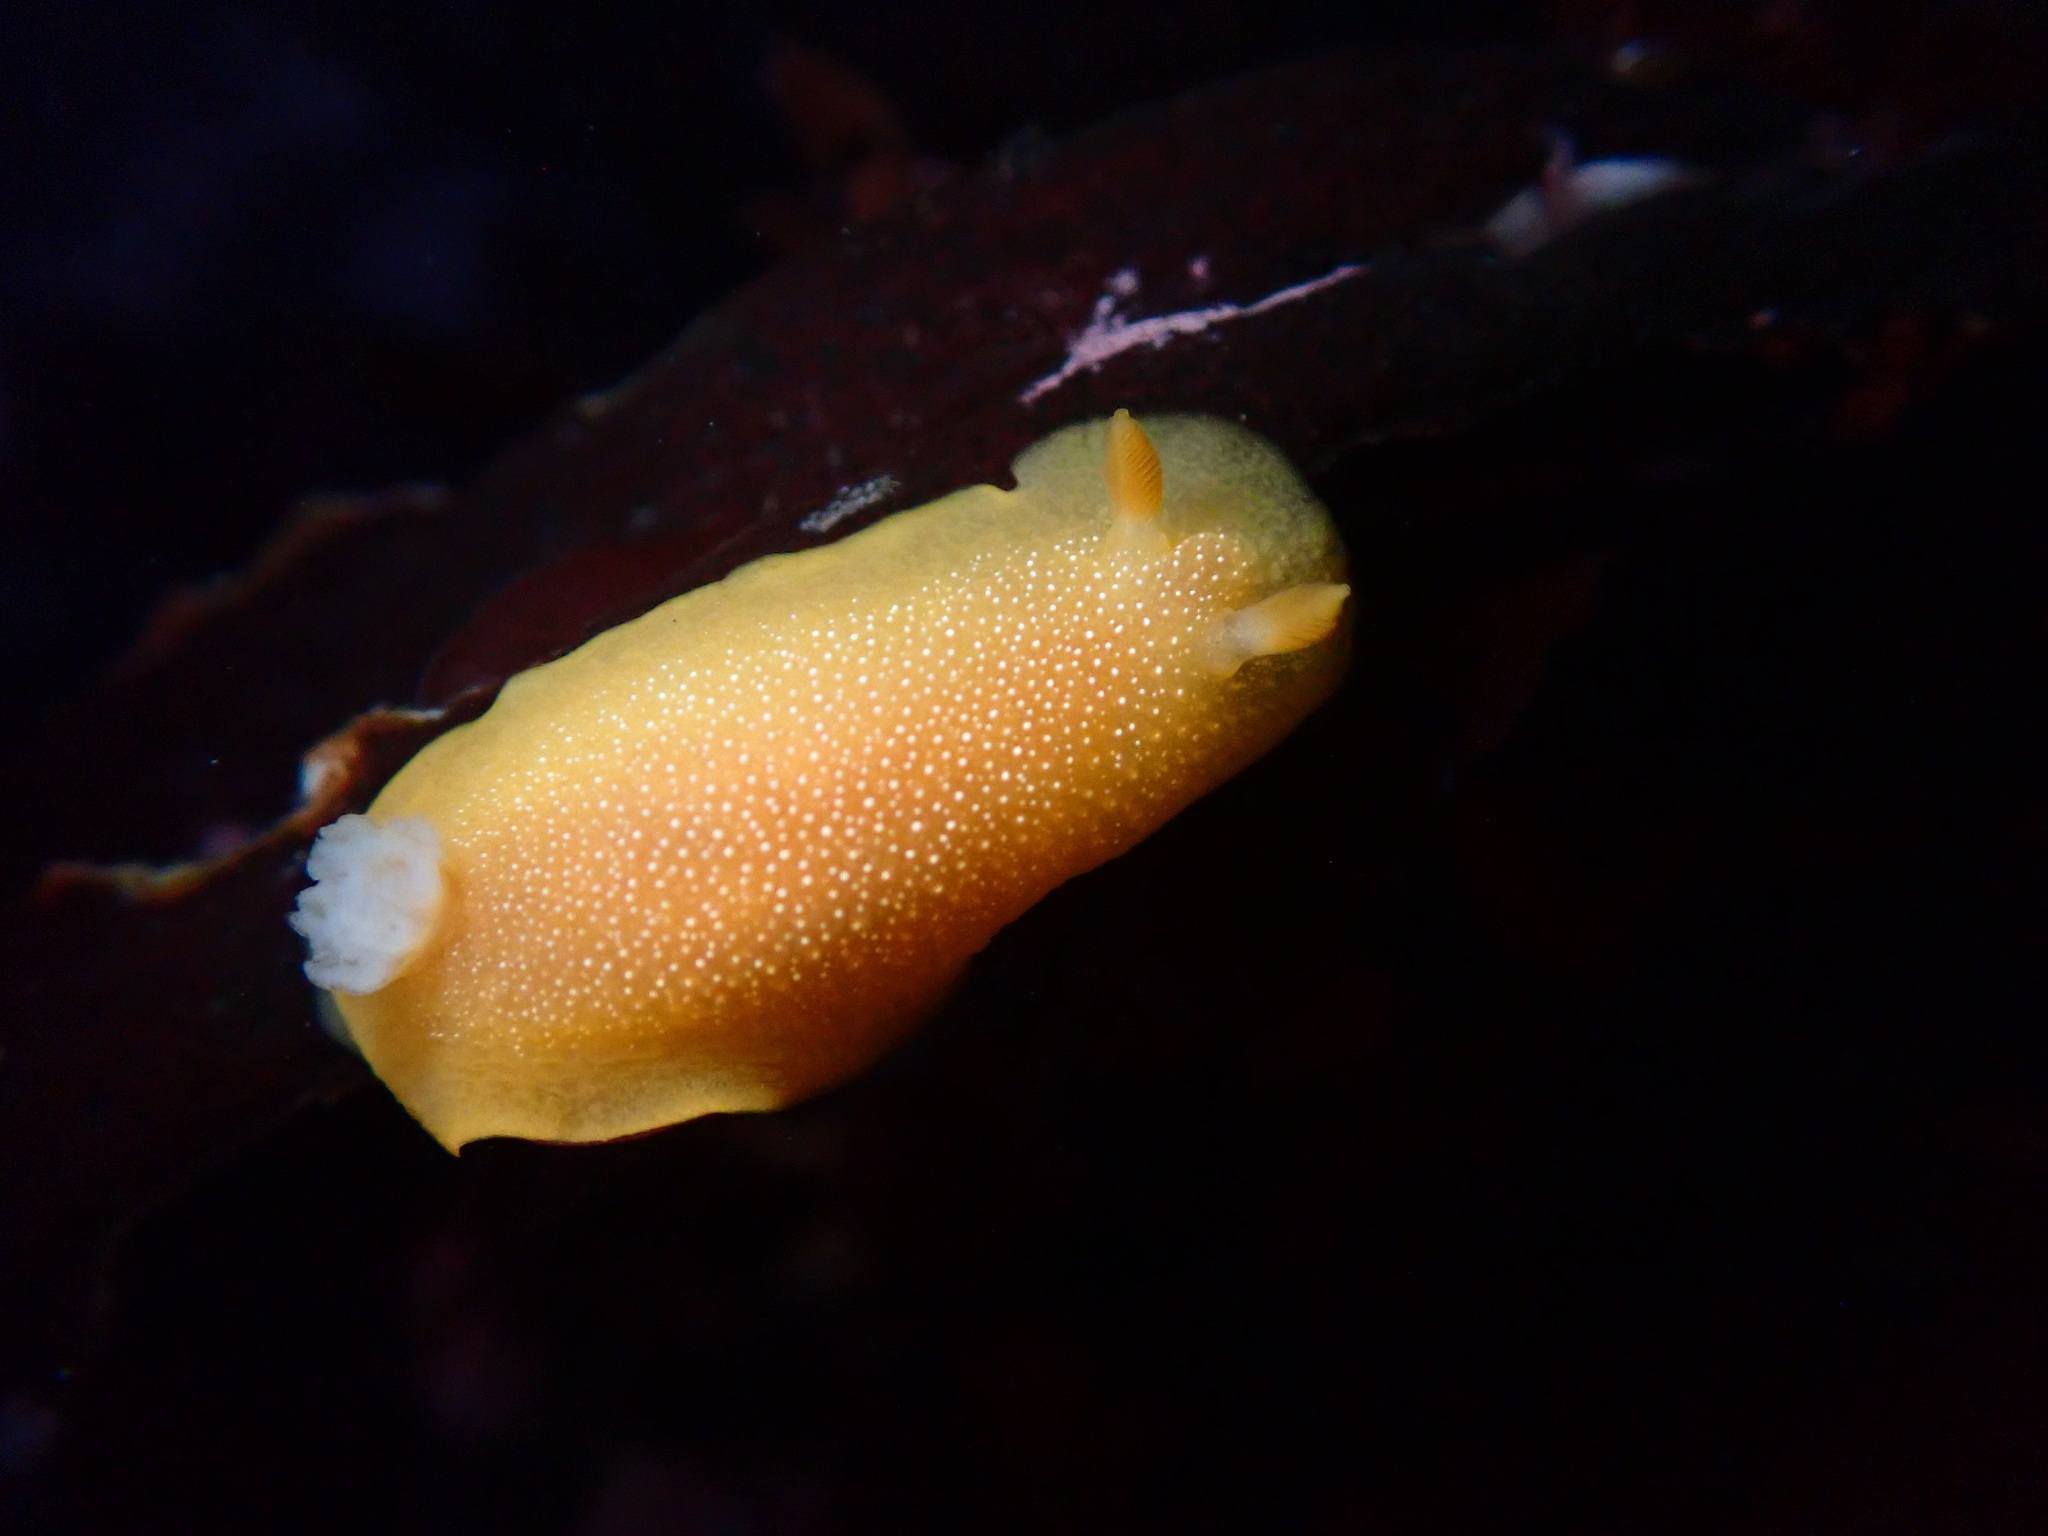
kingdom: Animalia
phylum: Mollusca
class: Gastropoda
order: Nudibranchia
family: Dendrodorididae
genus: Doriopsilla
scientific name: Doriopsilla albopunctata
